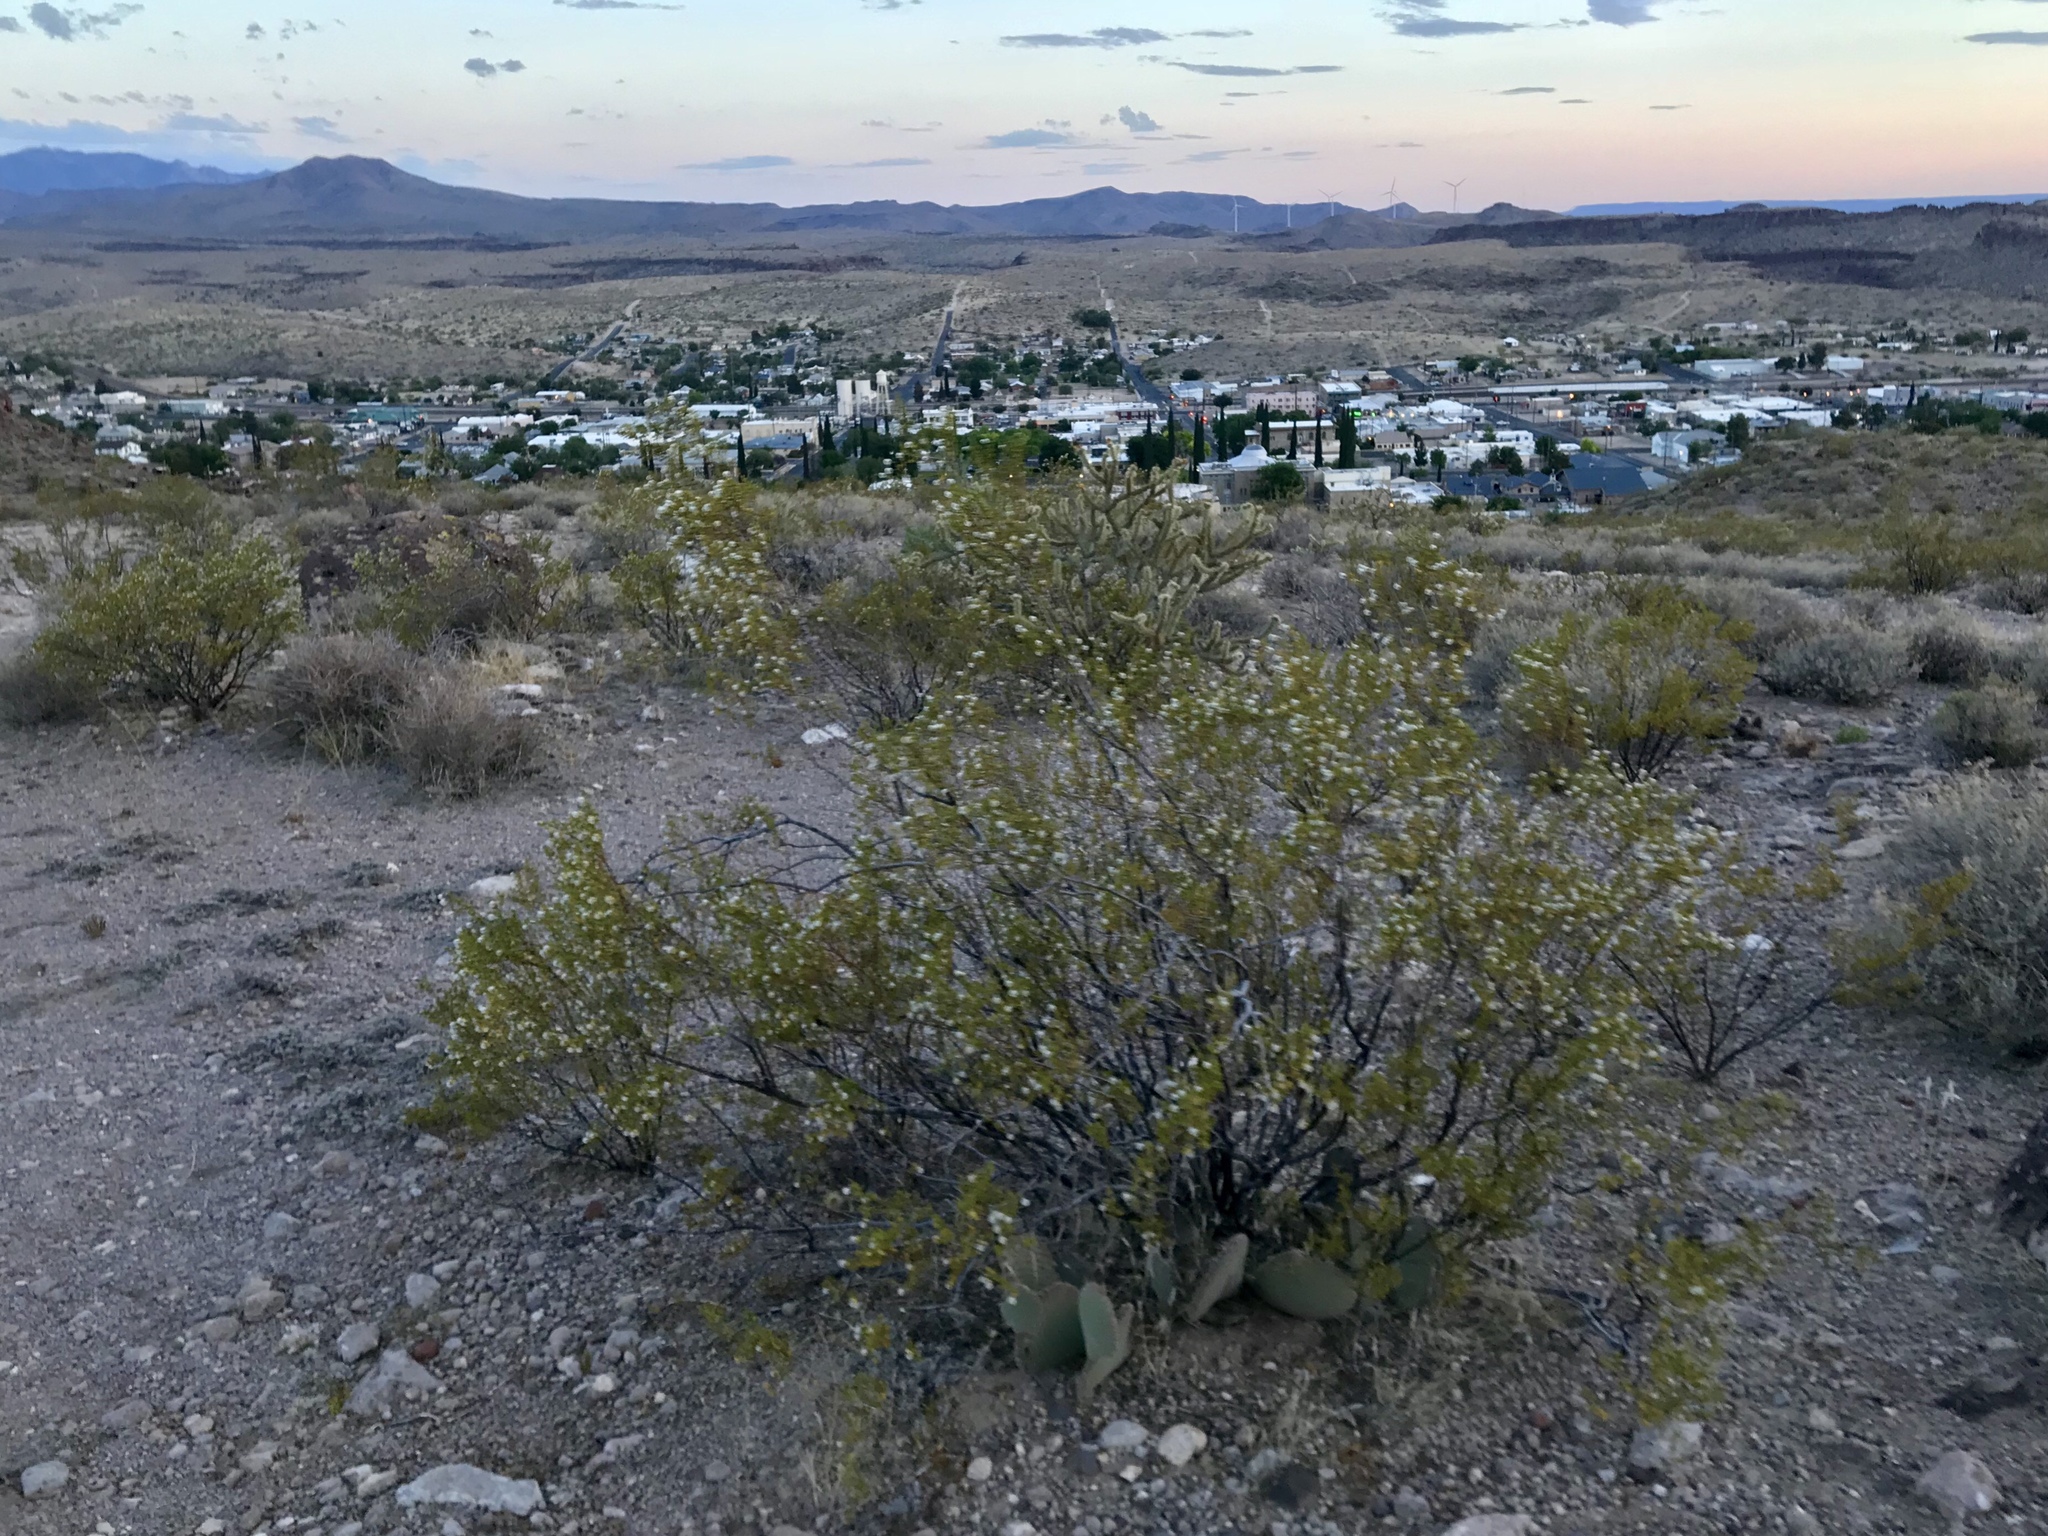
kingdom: Plantae
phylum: Tracheophyta
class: Magnoliopsida
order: Zygophyllales
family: Zygophyllaceae
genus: Larrea
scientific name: Larrea tridentata
